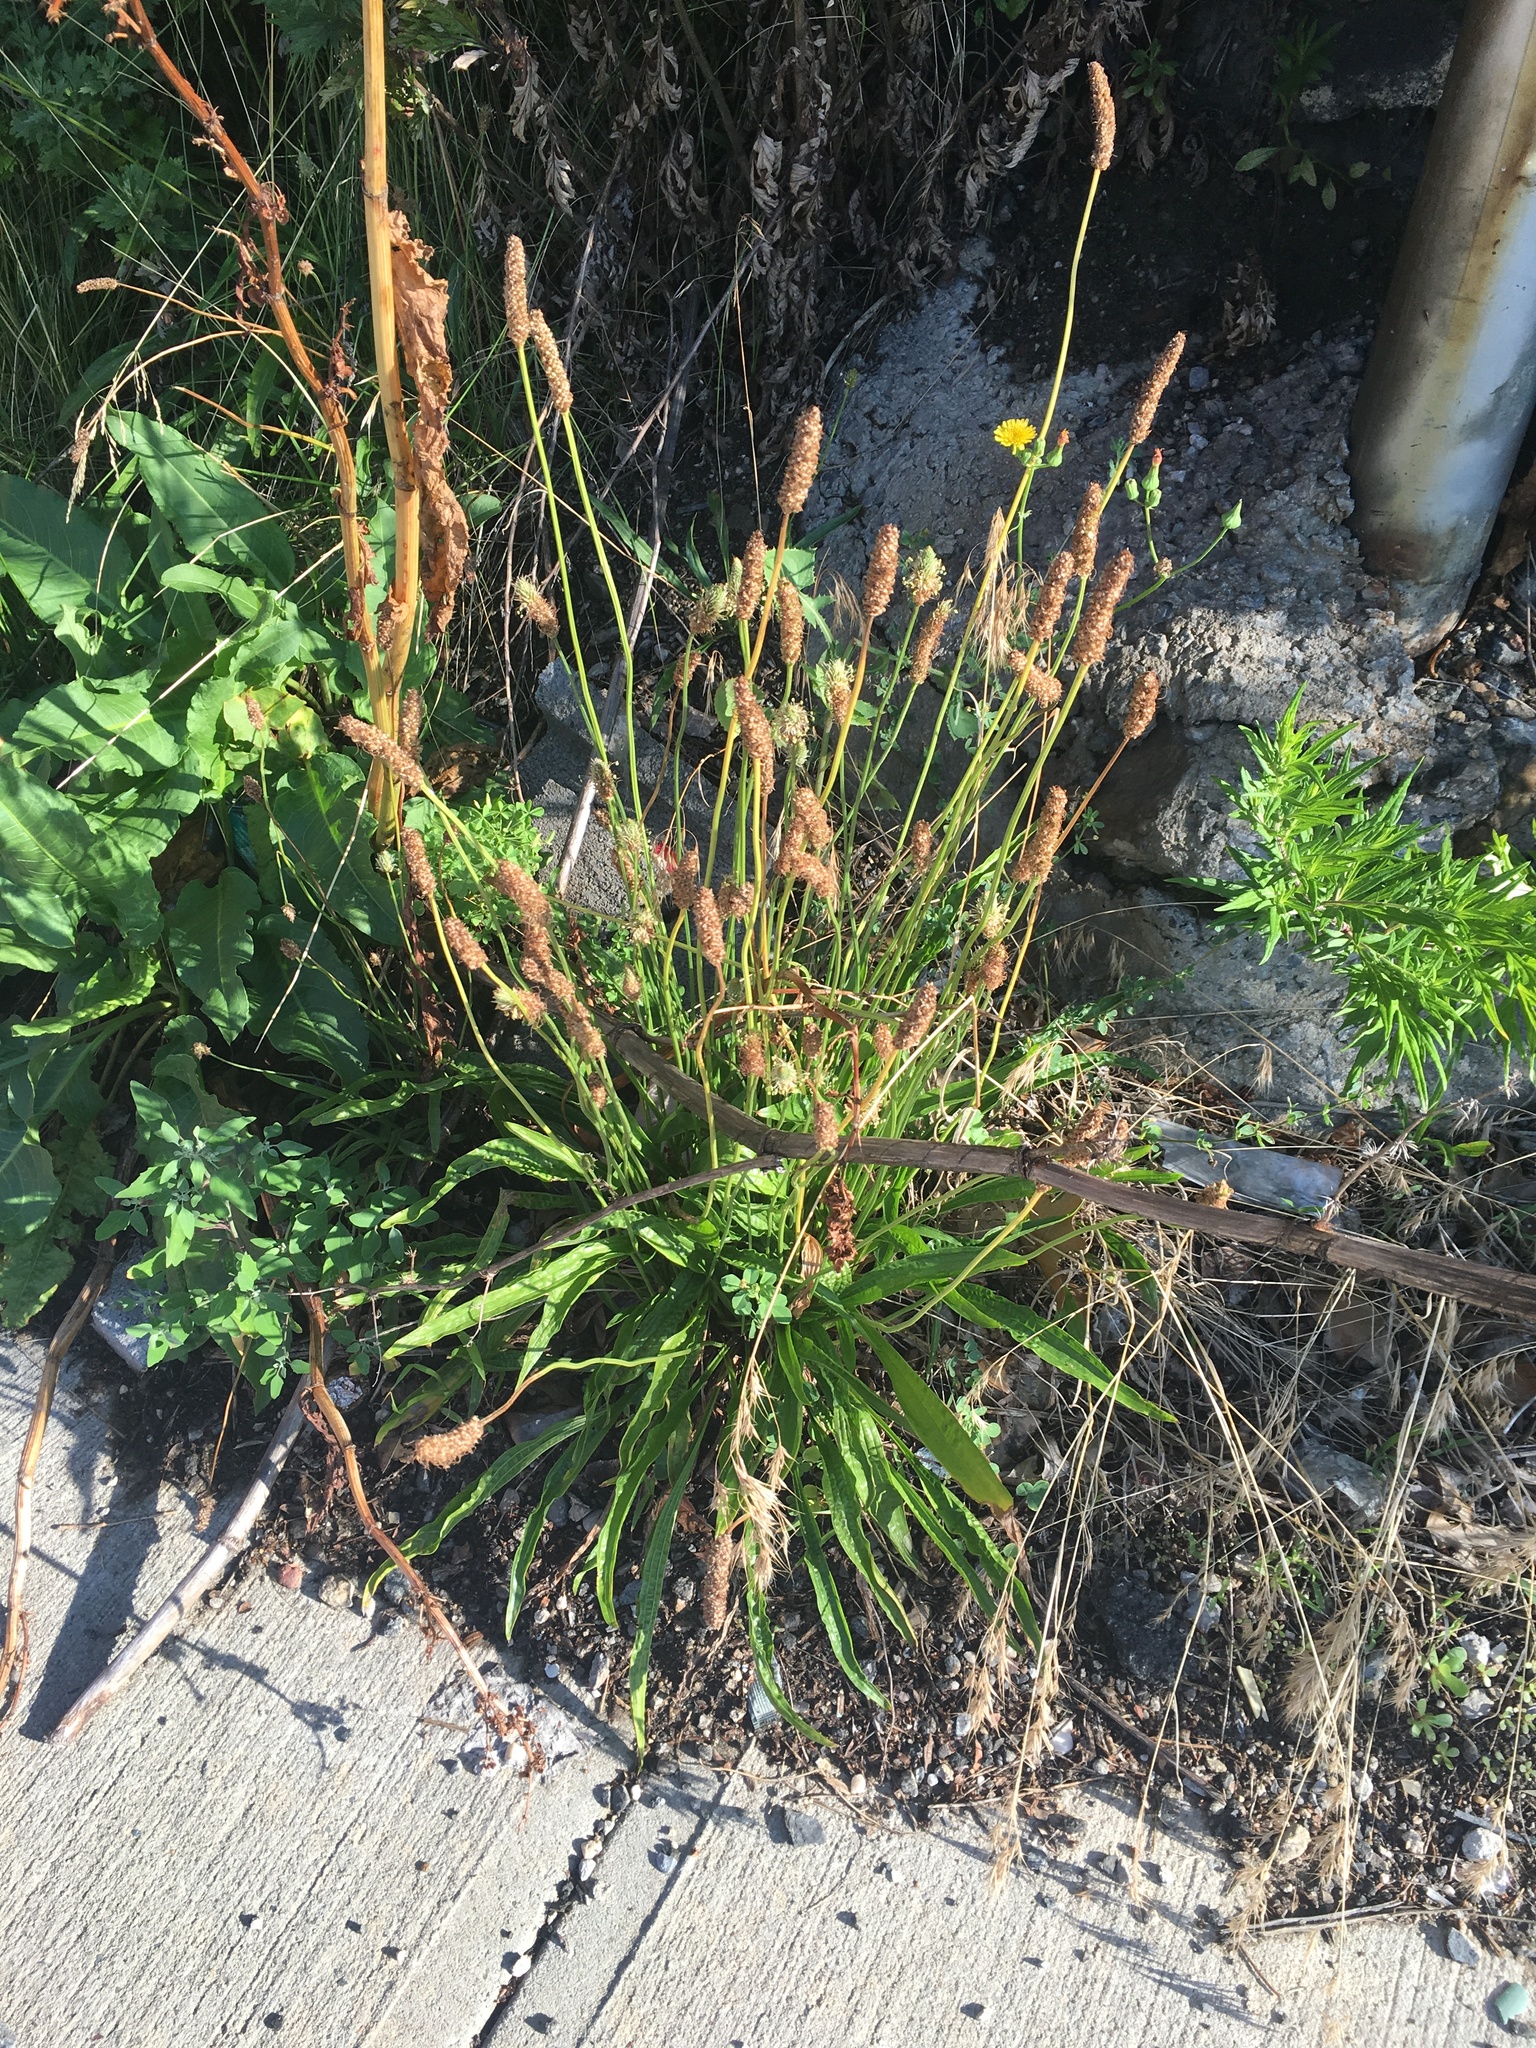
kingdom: Plantae
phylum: Tracheophyta
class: Magnoliopsida
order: Lamiales
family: Plantaginaceae
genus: Plantago
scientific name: Plantago lanceolata
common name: Ribwort plantain
